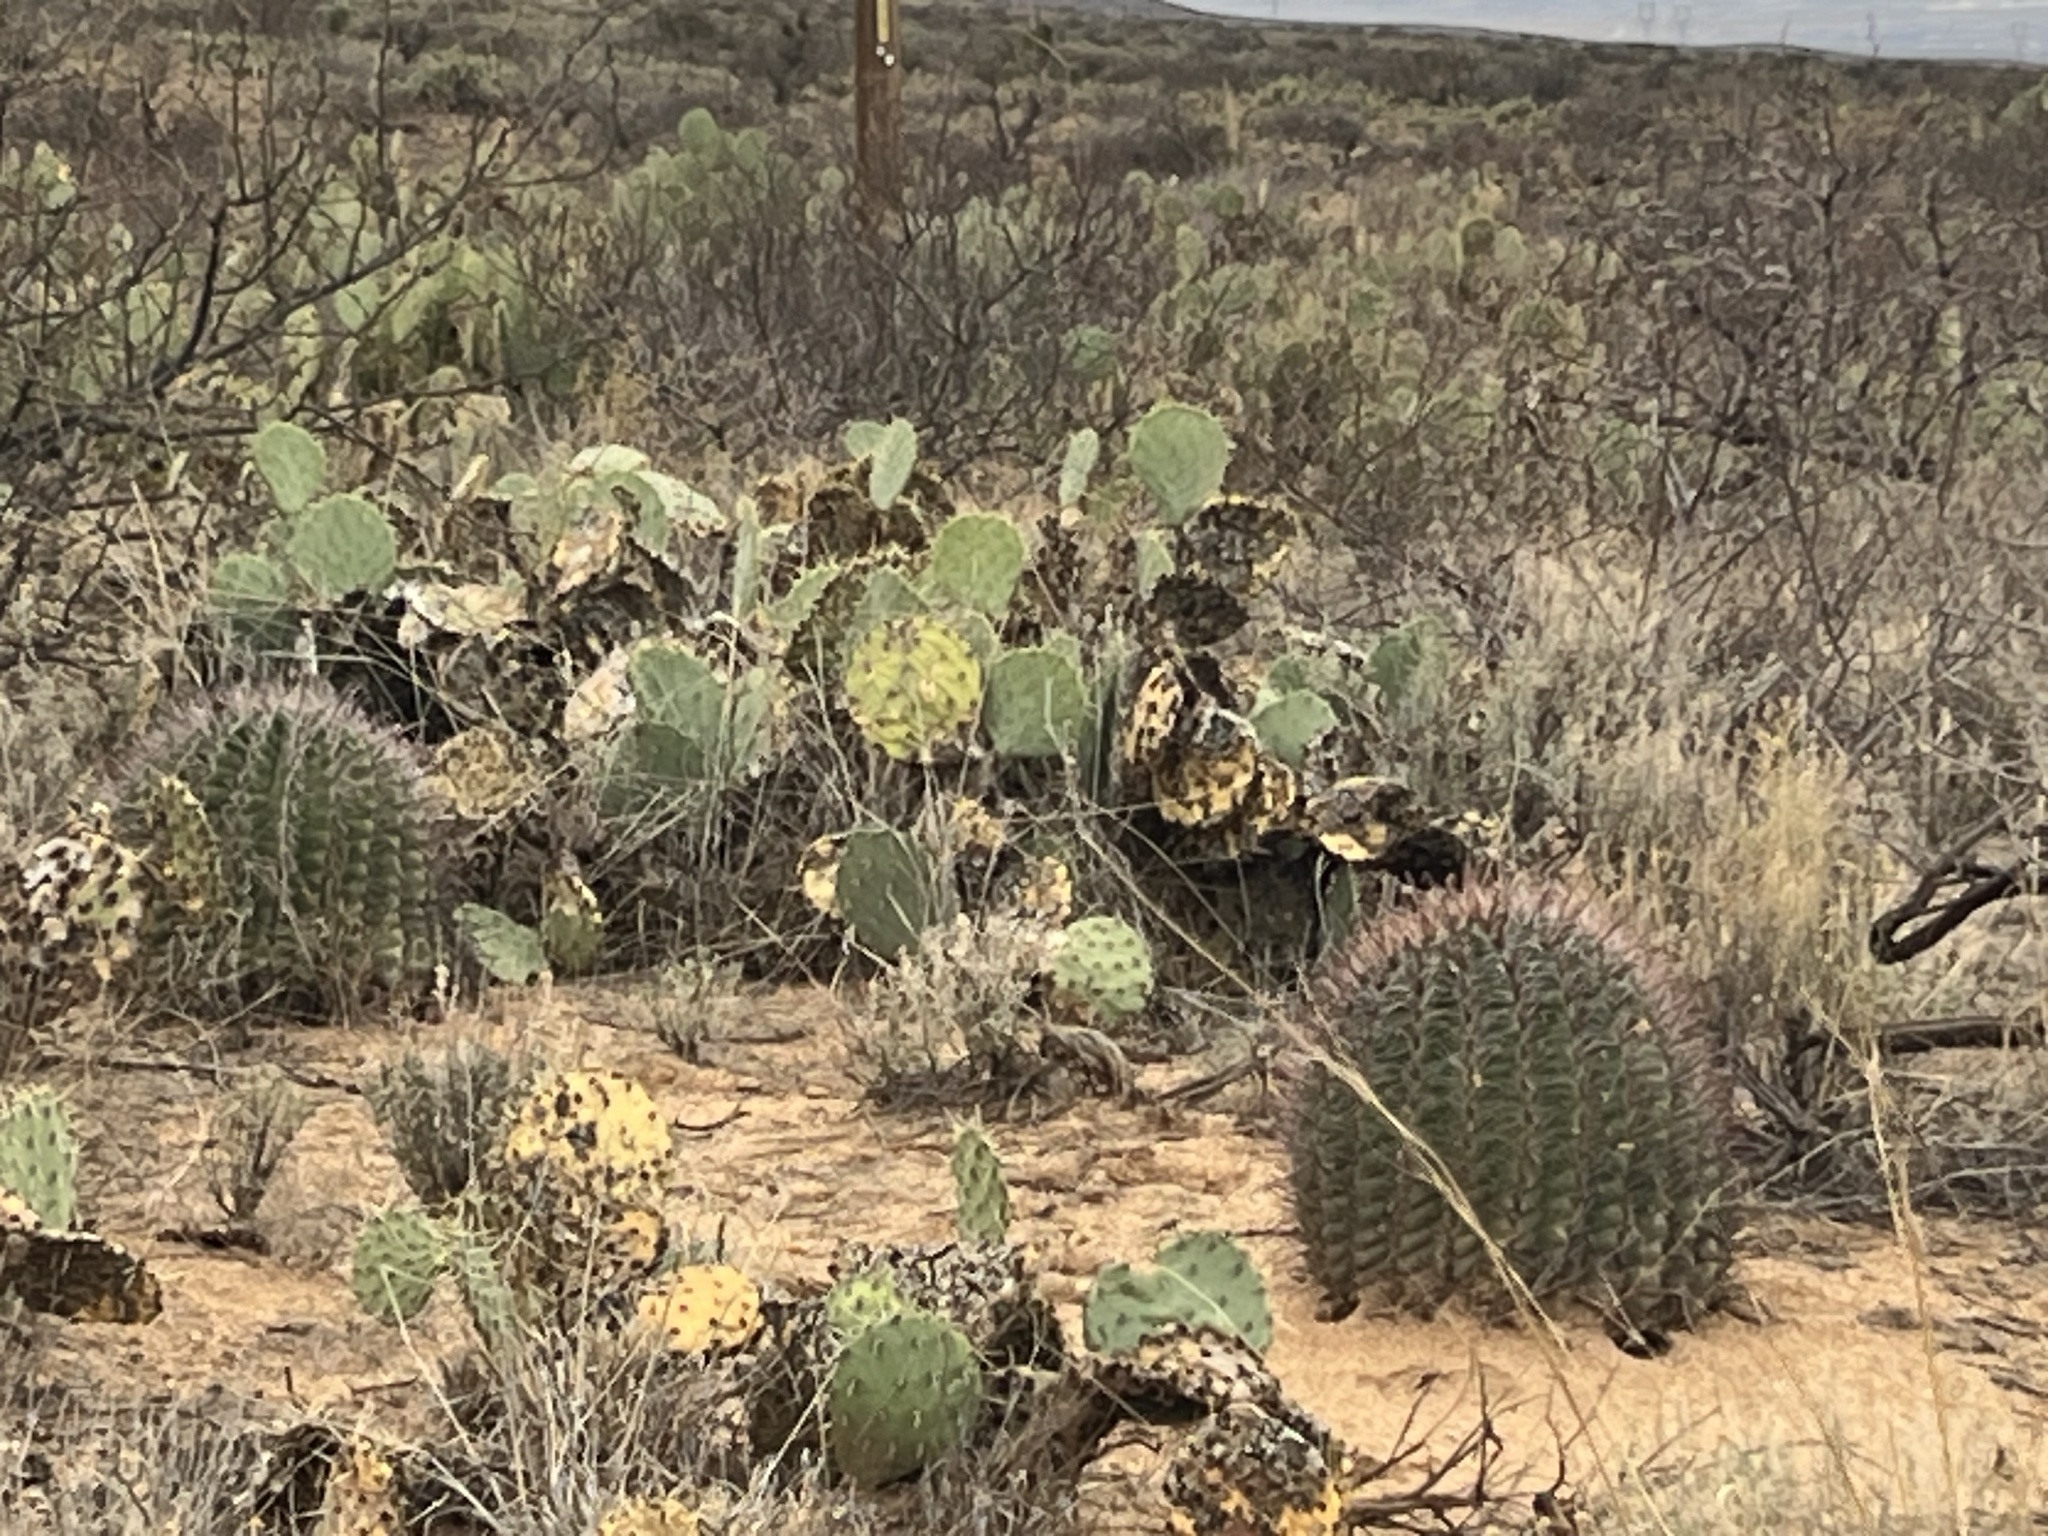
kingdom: Plantae
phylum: Tracheophyta
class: Magnoliopsida
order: Caryophyllales
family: Cactaceae
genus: Ferocactus
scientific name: Ferocactus wislizeni
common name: Candy barrel cactus
